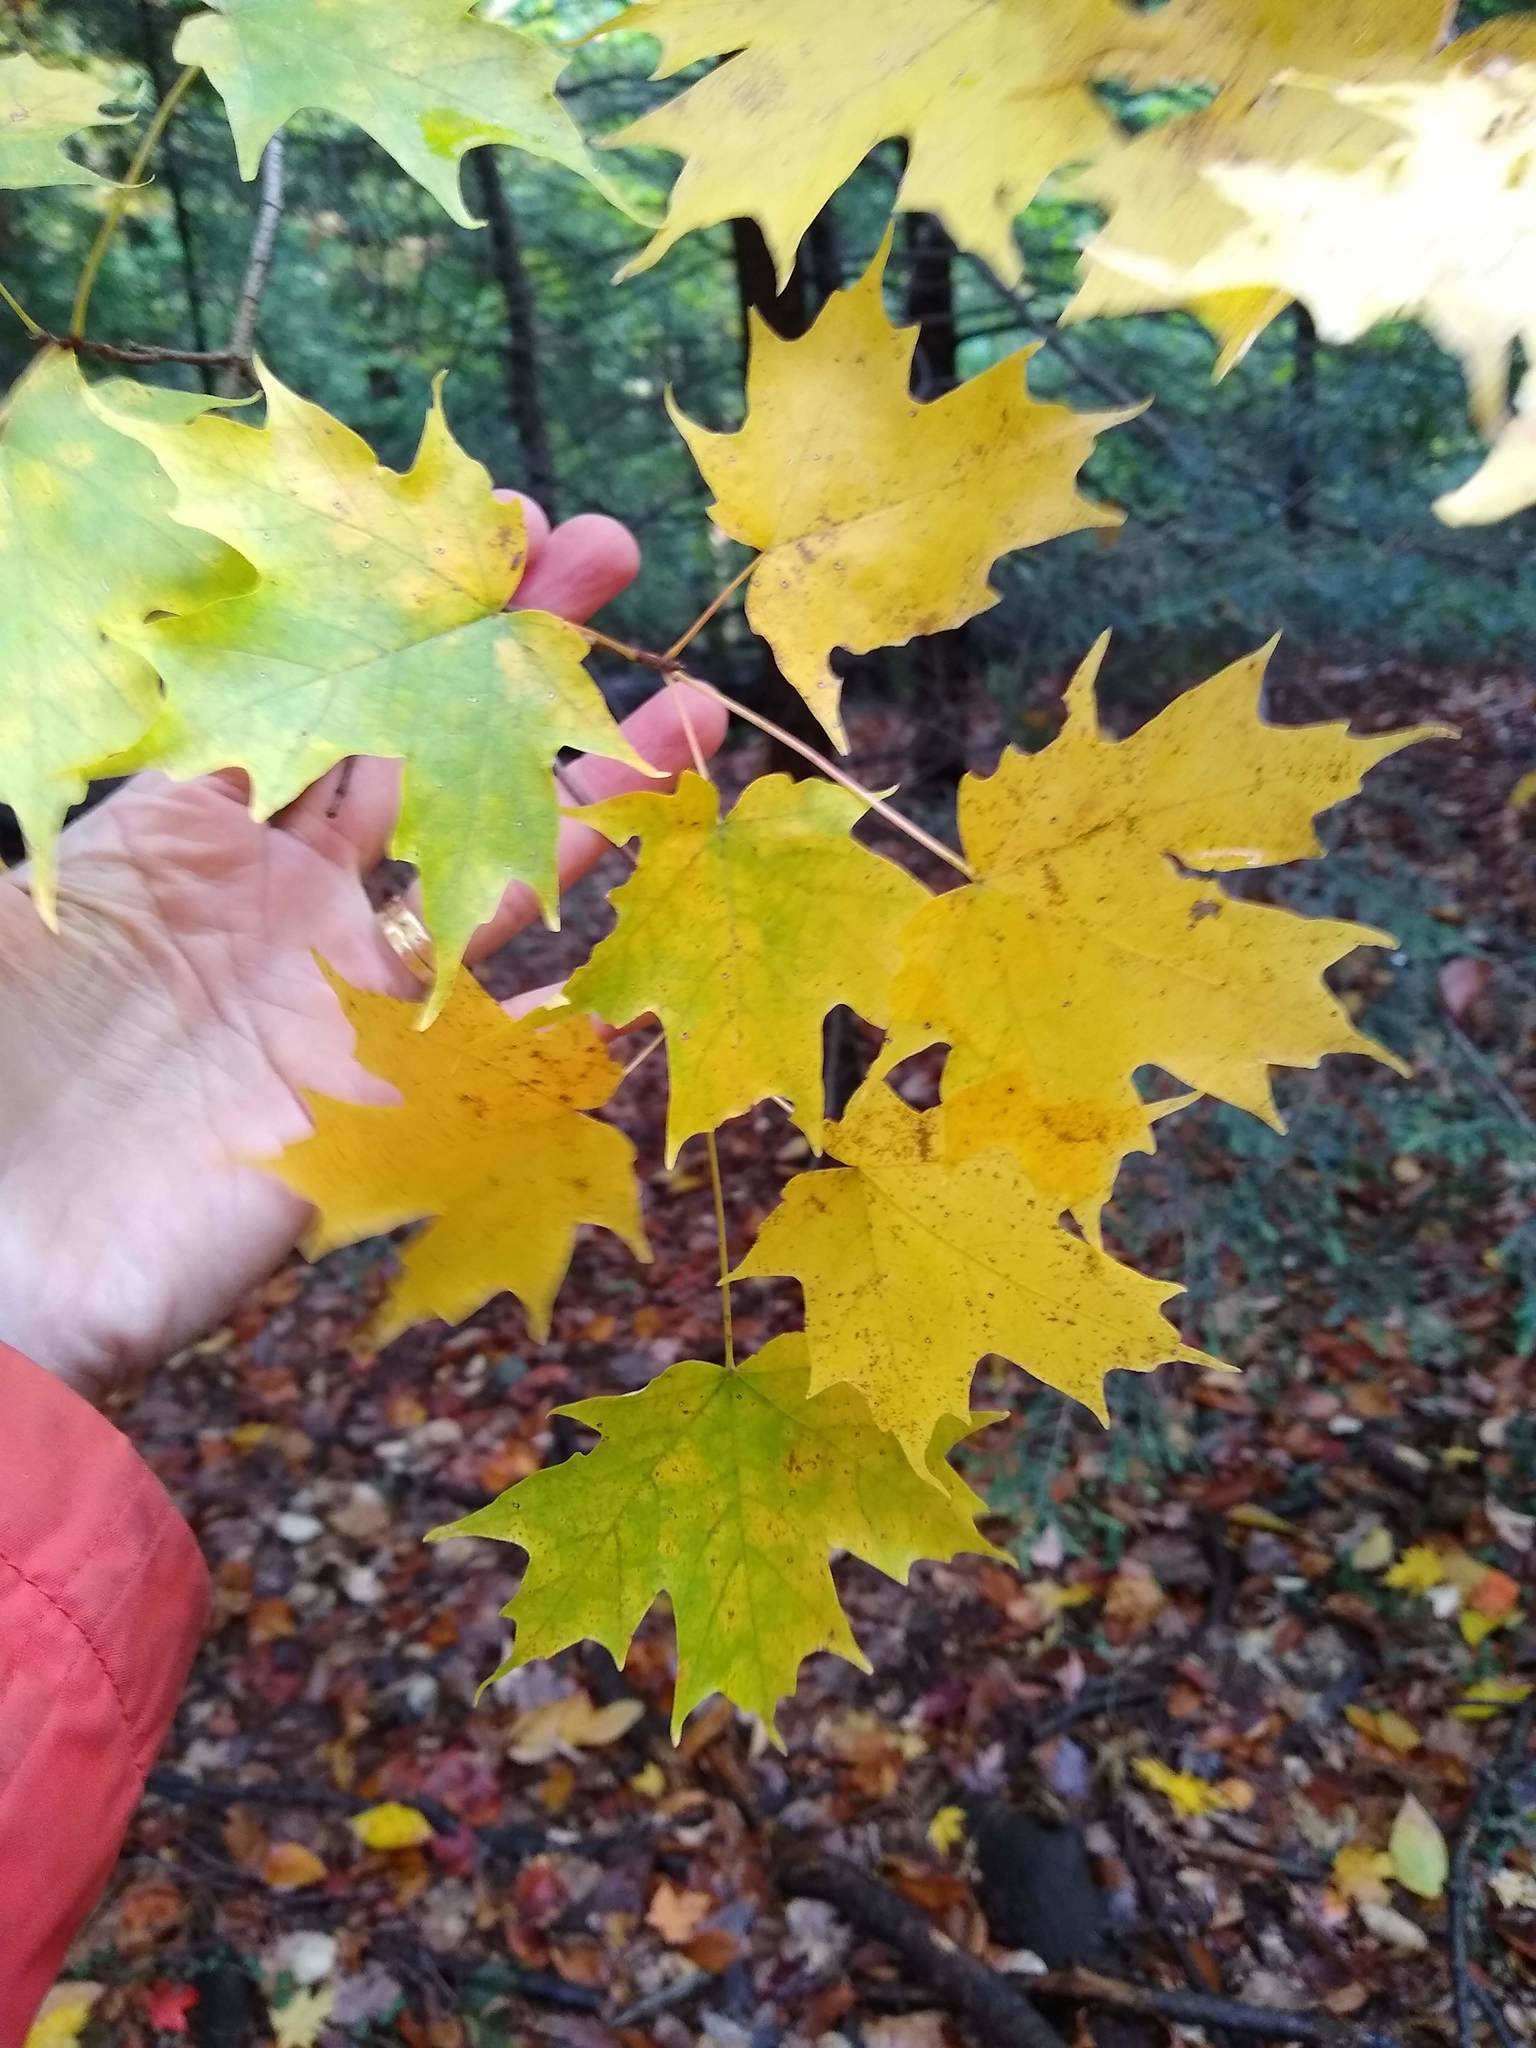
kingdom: Plantae
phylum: Tracheophyta
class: Magnoliopsida
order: Sapindales
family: Sapindaceae
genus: Acer
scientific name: Acer saccharum
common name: Sugar maple
